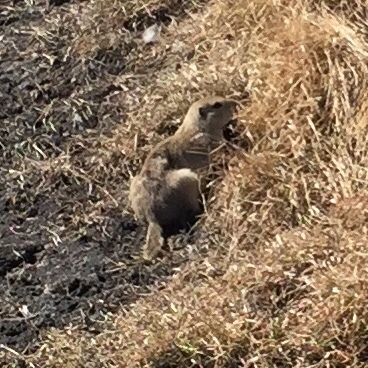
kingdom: Animalia
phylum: Chordata
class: Mammalia
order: Rodentia
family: Sciuridae
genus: Urocitellus
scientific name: Urocitellus richardsonii
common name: Richardson's ground squirrel
